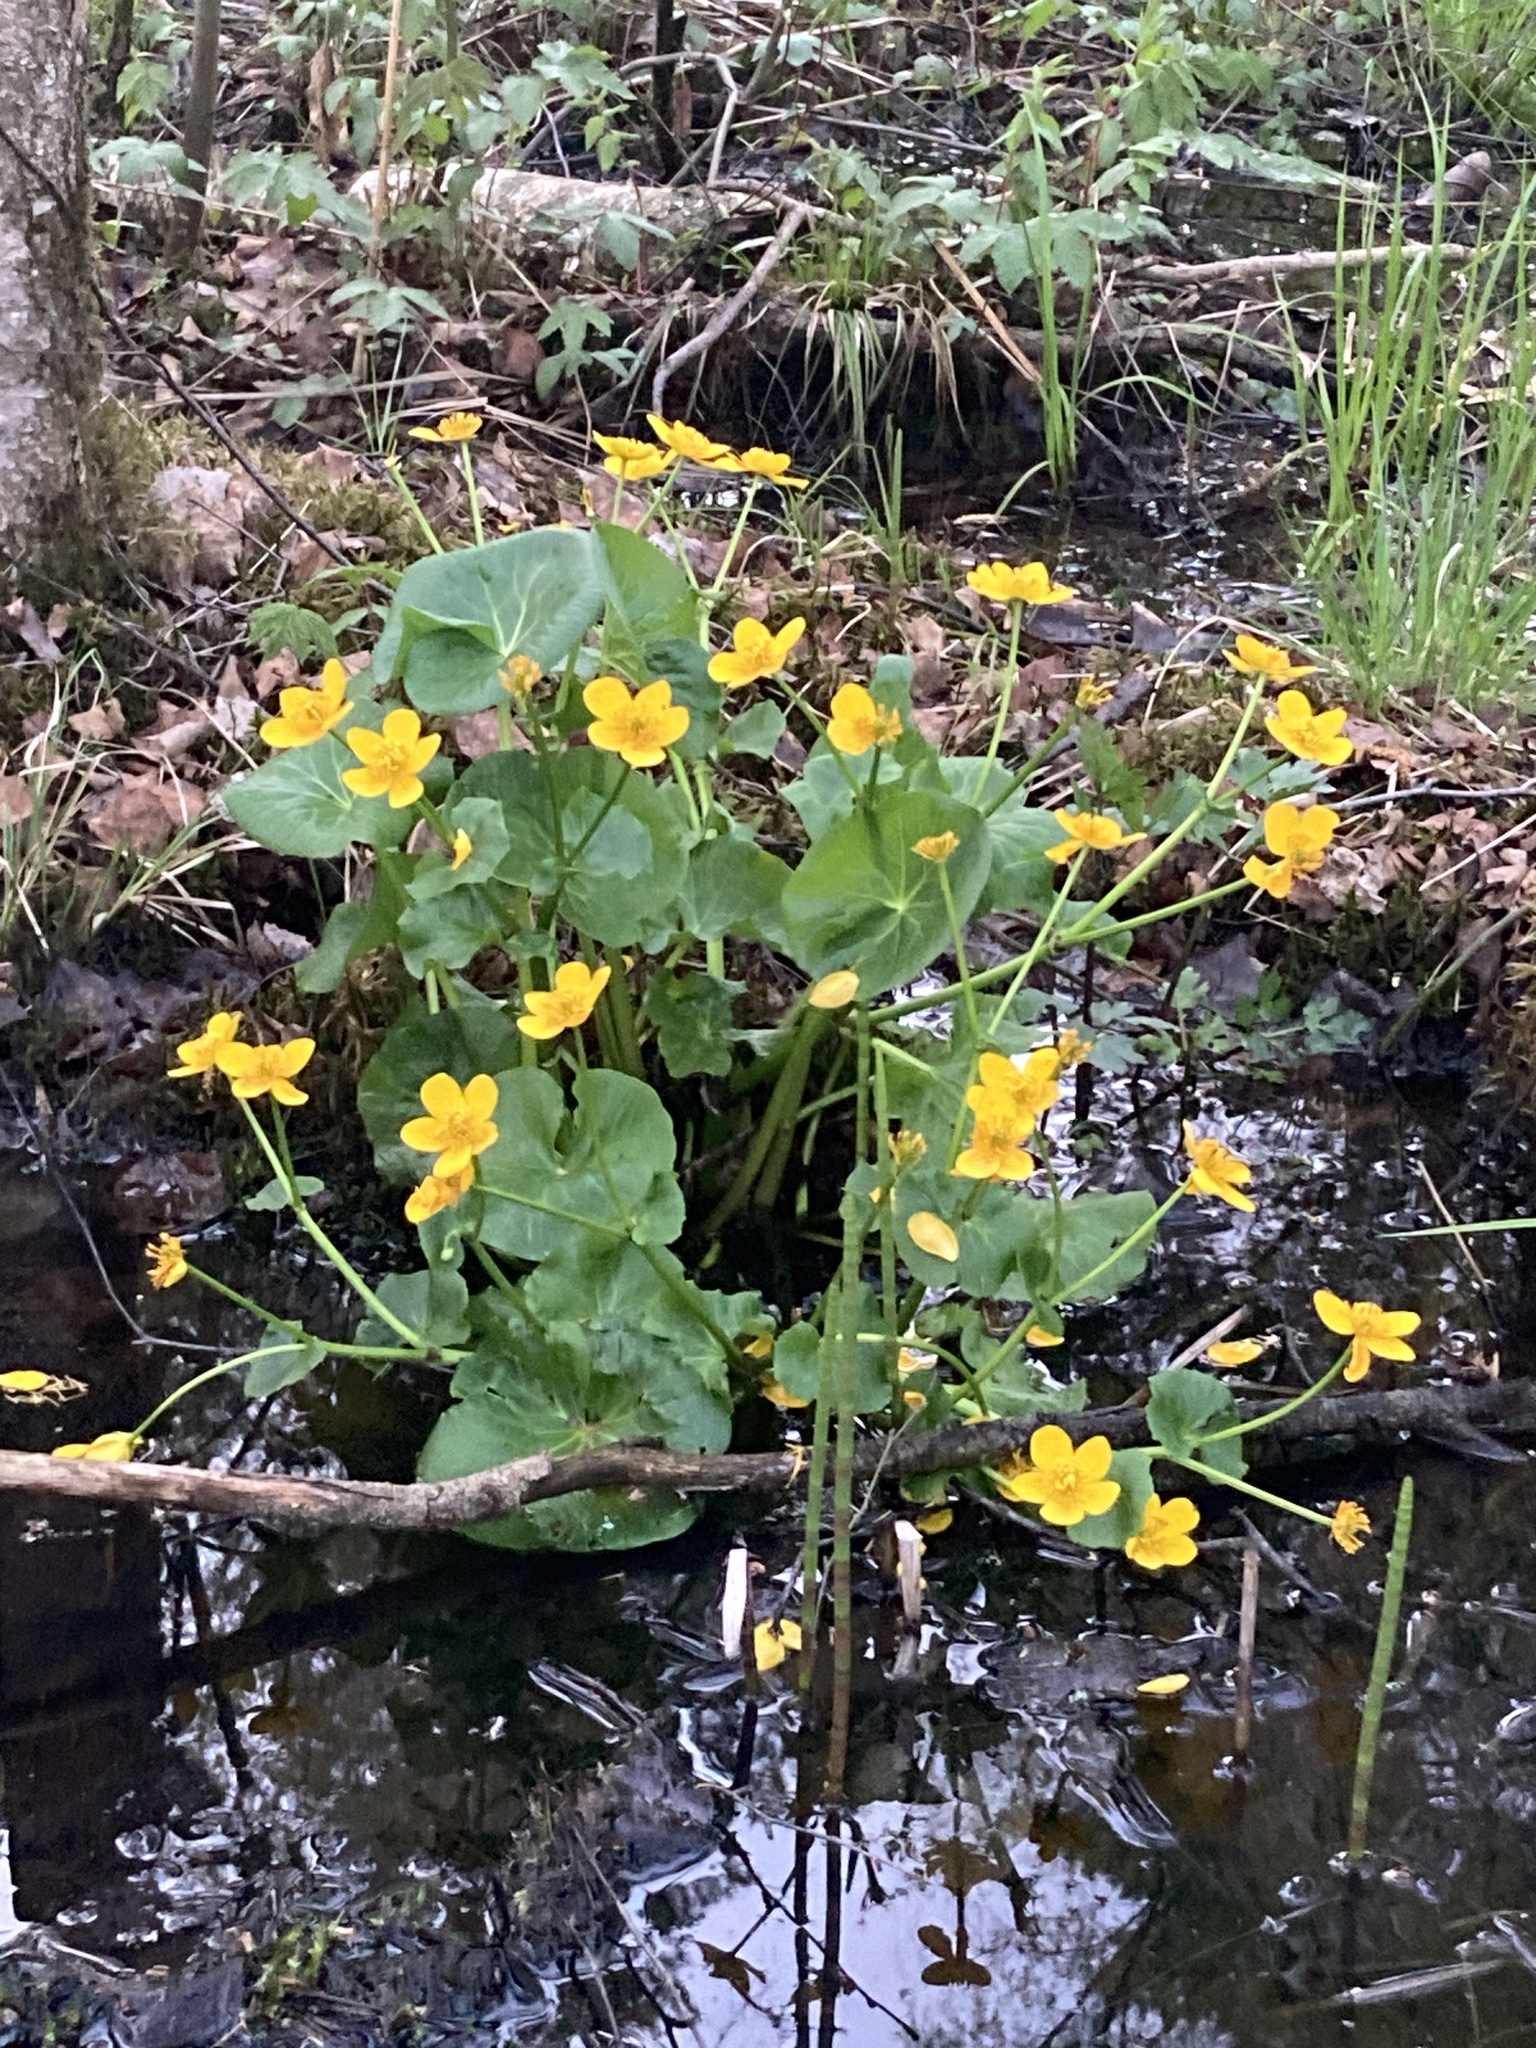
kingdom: Plantae
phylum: Tracheophyta
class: Magnoliopsida
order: Ranunculales
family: Ranunculaceae
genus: Caltha
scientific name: Caltha palustris
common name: Marsh marigold
